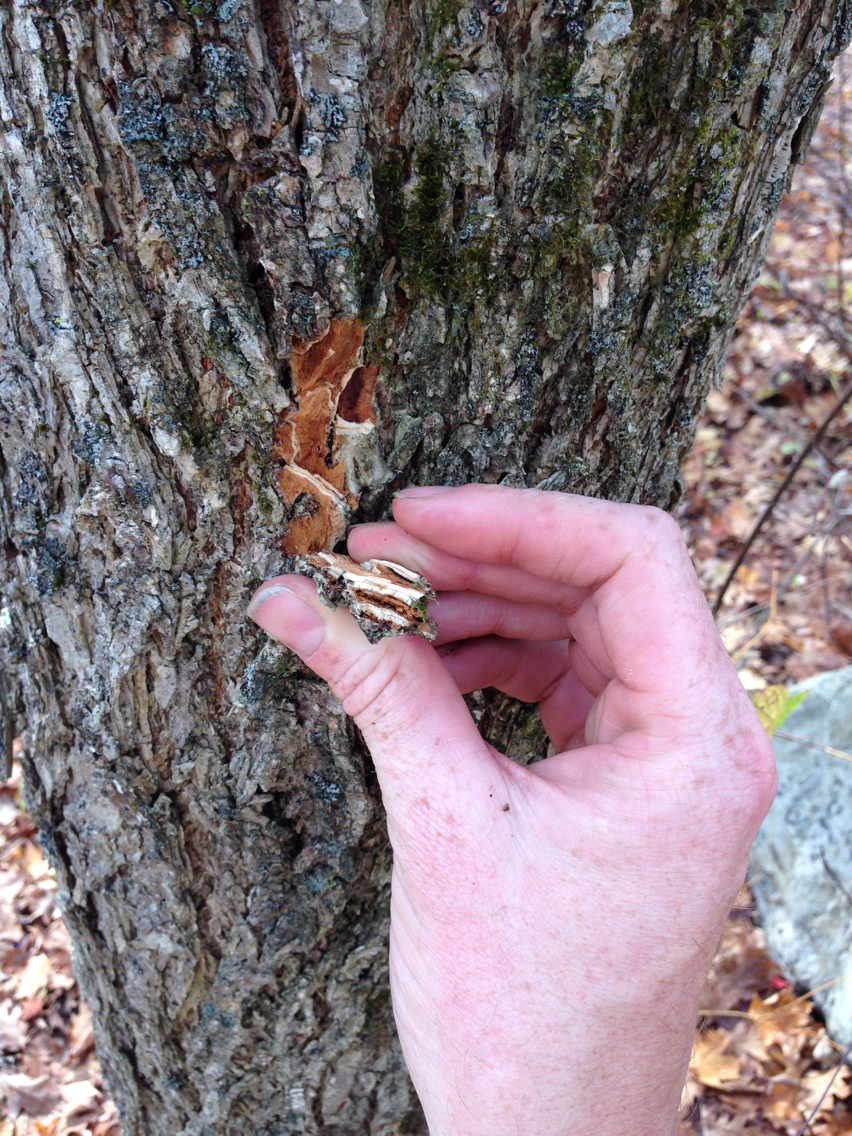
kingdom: Plantae
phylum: Tracheophyta
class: Magnoliopsida
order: Rosales
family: Ulmaceae
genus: Ulmus
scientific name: Ulmus americana
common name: American elm
